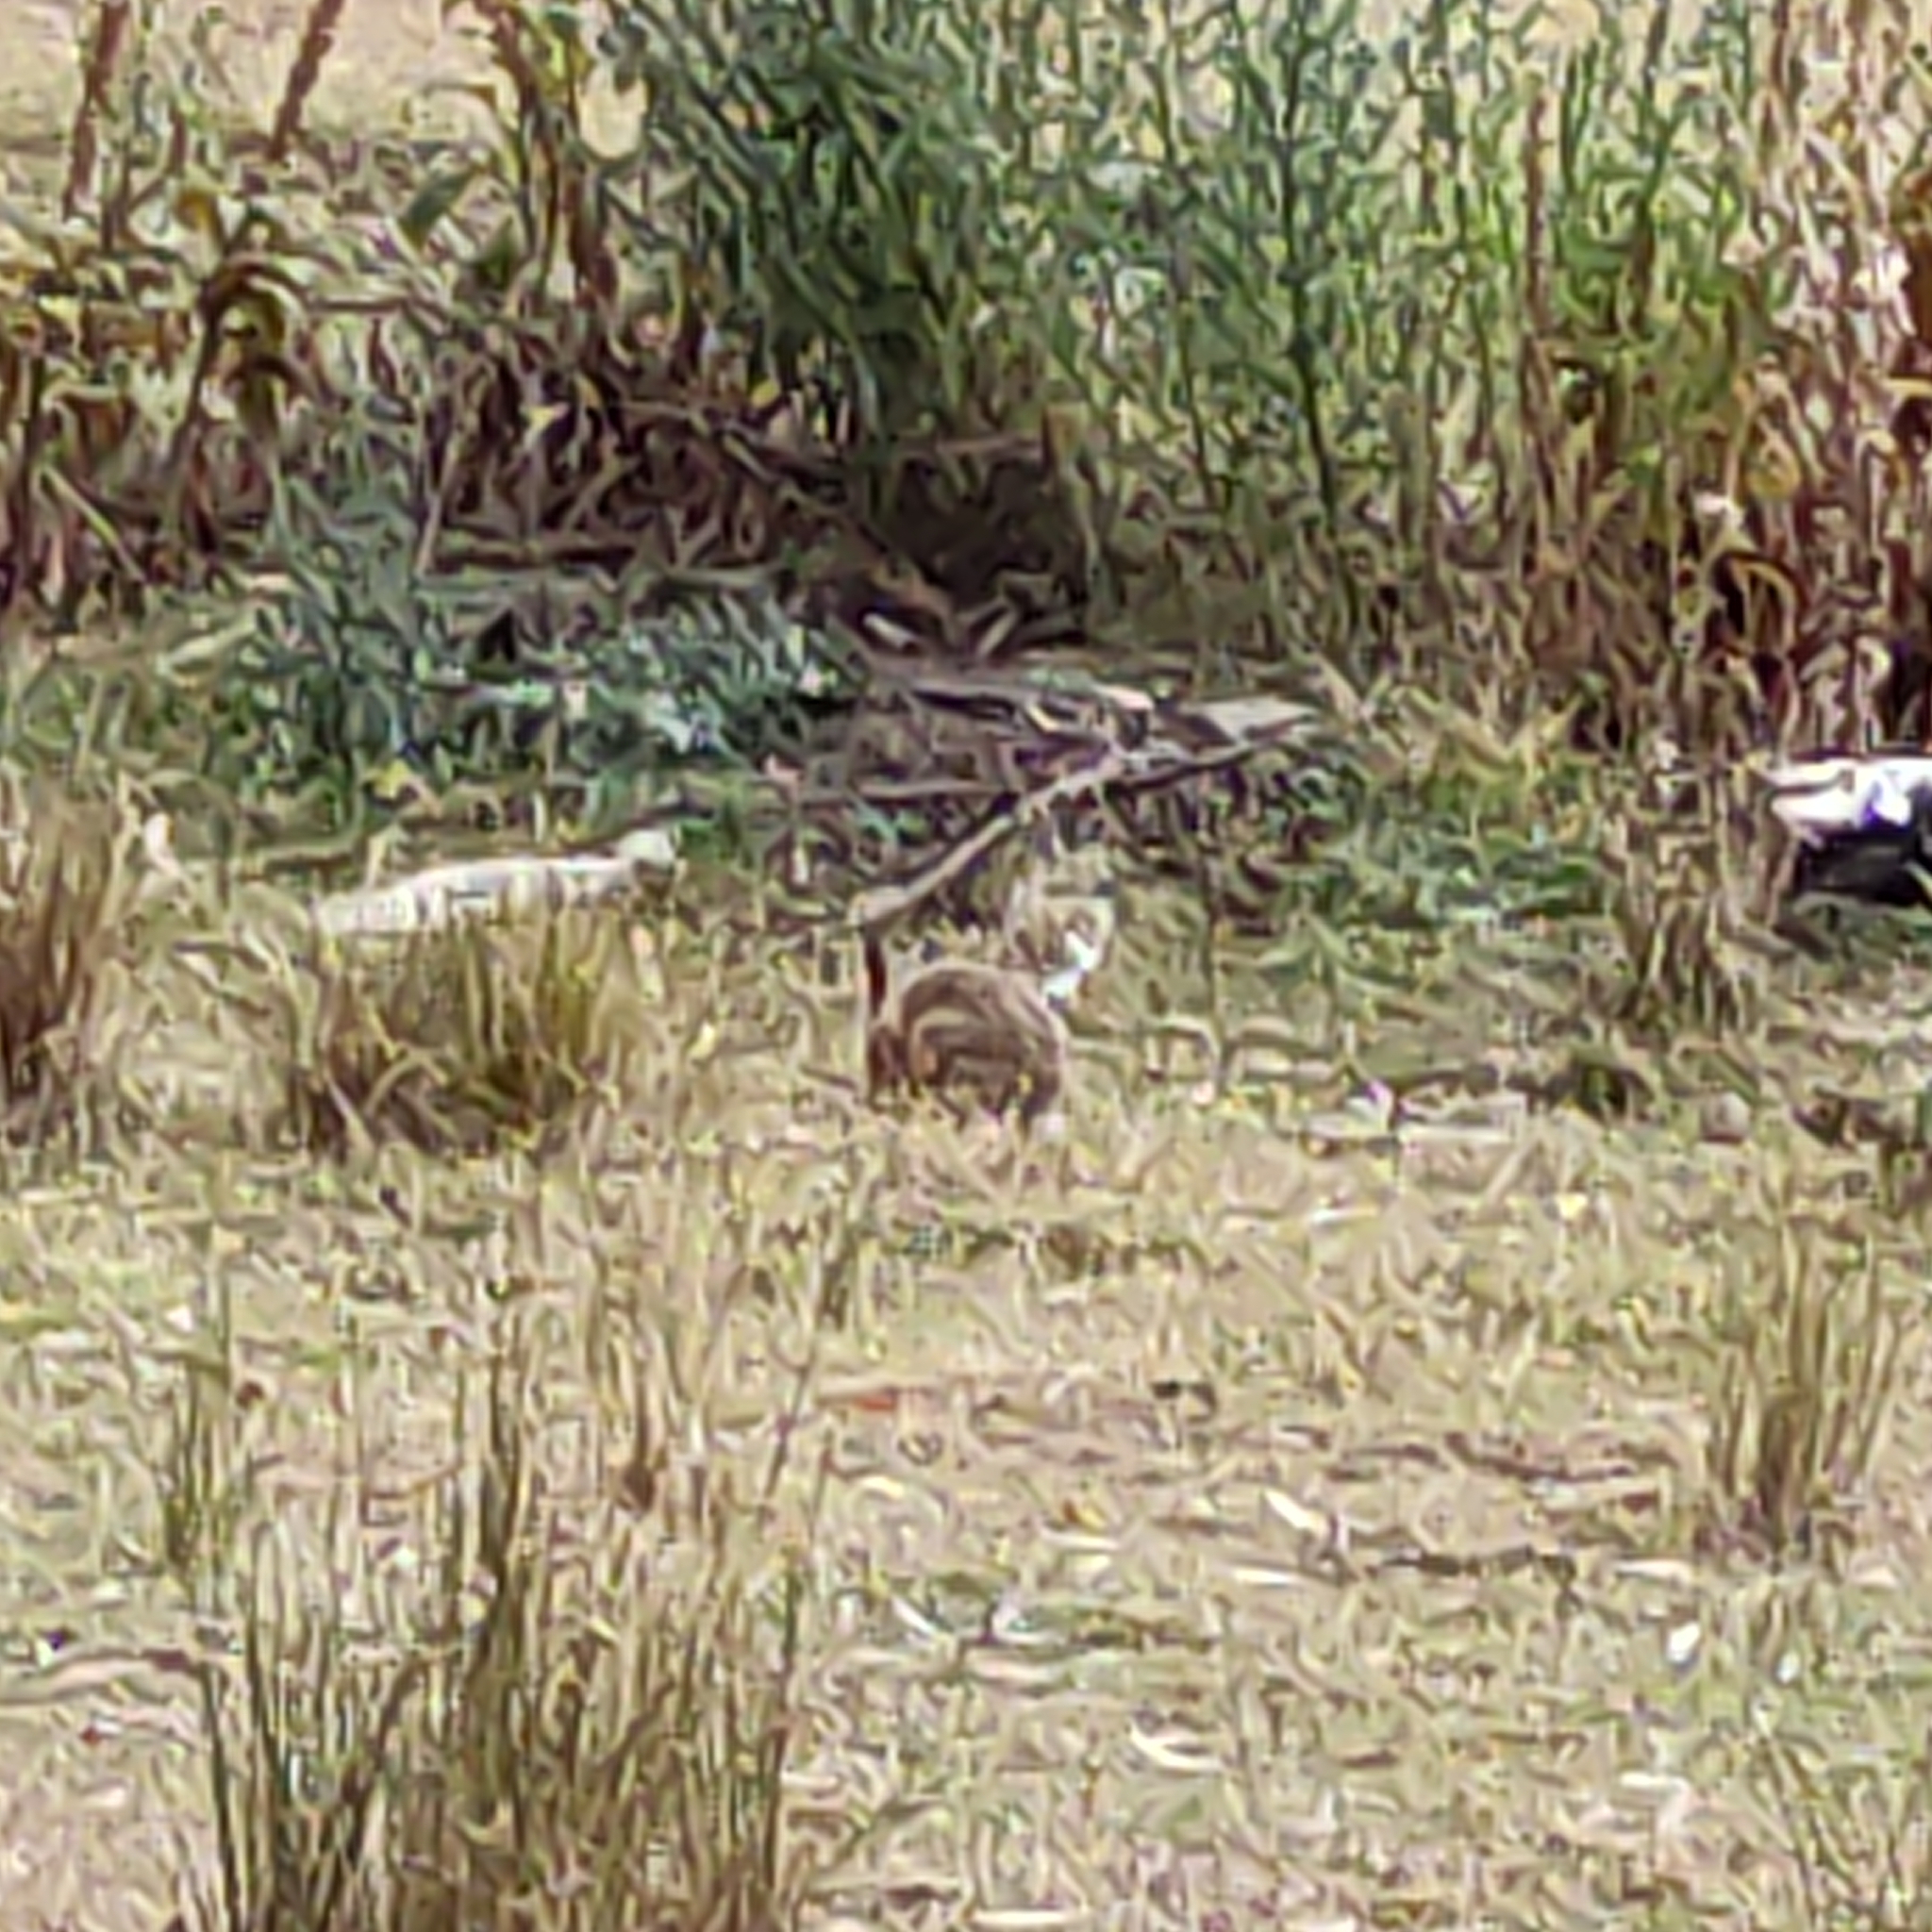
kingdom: Animalia
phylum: Chordata
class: Mammalia
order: Lagomorpha
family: Leporidae
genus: Lepus
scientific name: Lepus europaeus
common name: European hare
